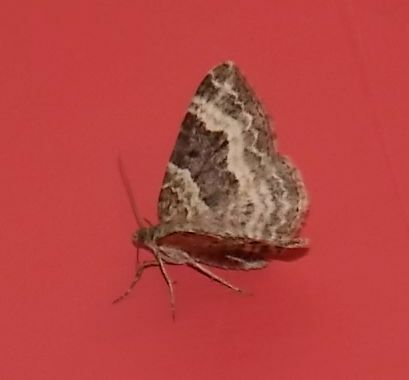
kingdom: Animalia
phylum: Arthropoda
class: Insecta
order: Lepidoptera
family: Geometridae
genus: Epirrhoe
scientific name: Epirrhoe alternata
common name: Common carpet
